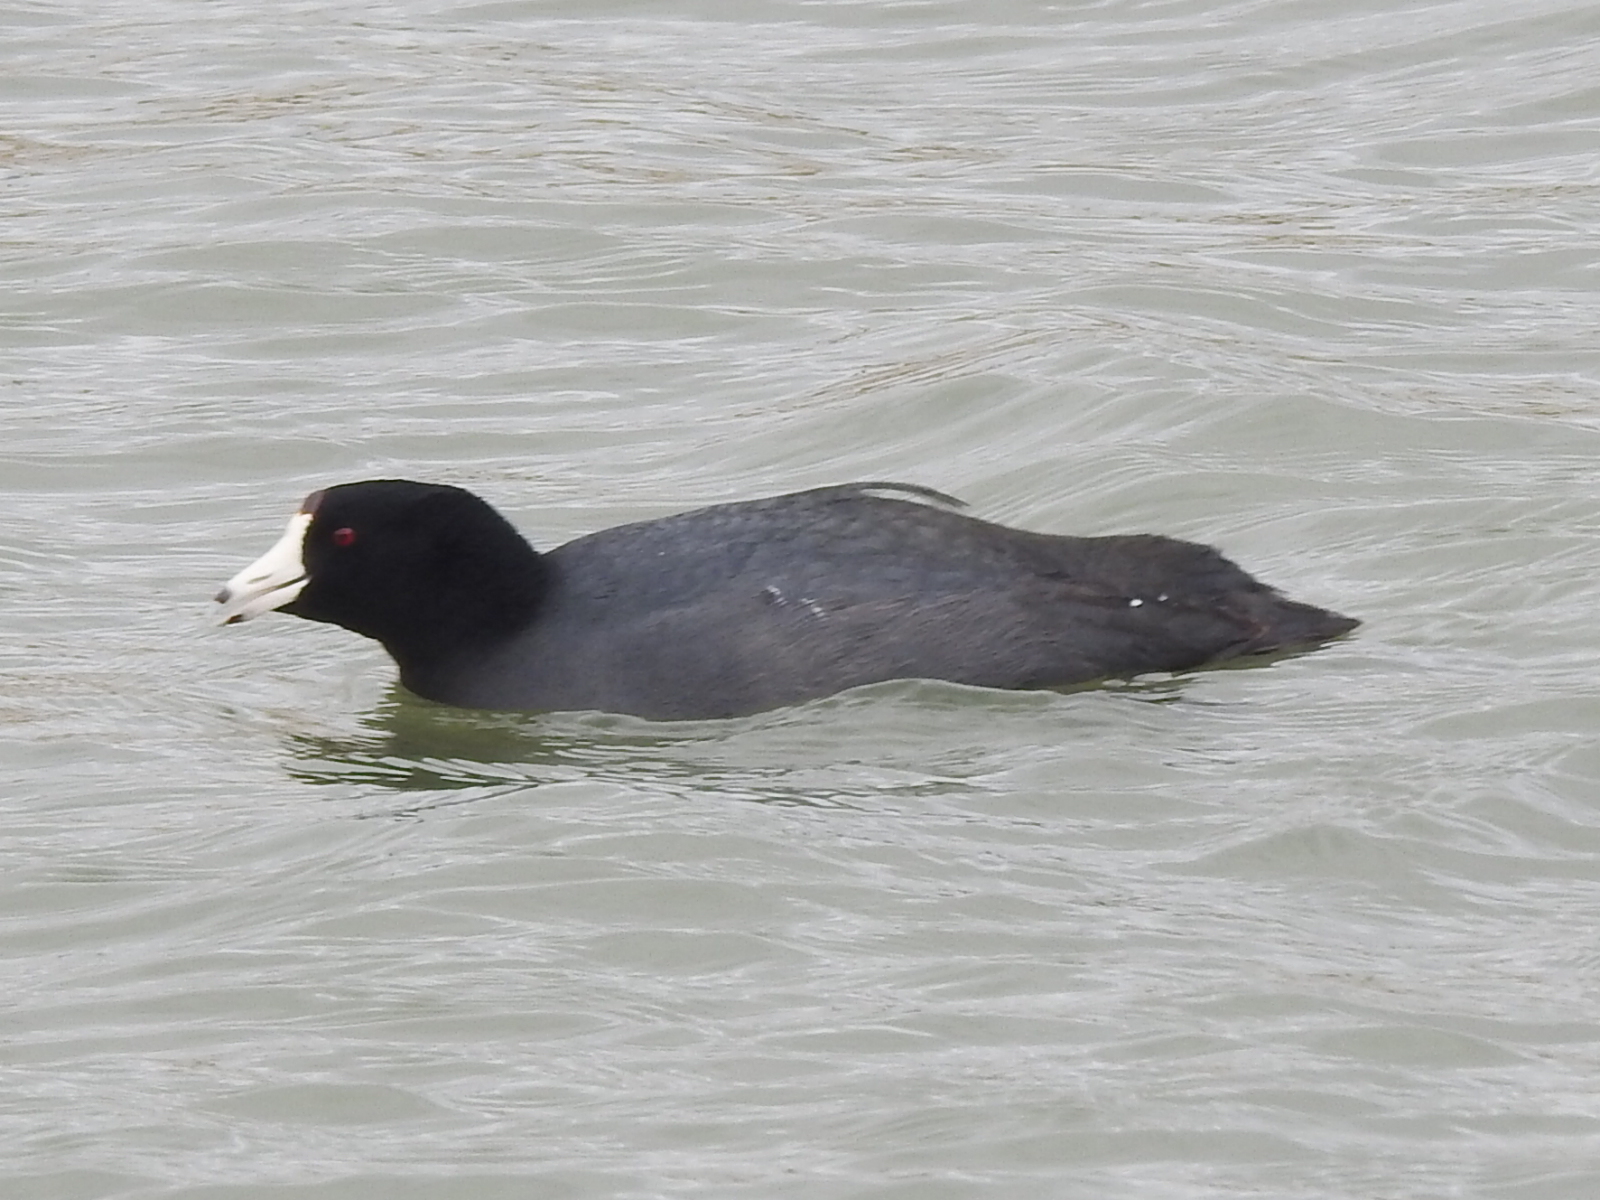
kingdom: Animalia
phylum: Chordata
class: Aves
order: Gruiformes
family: Rallidae
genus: Fulica
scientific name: Fulica americana
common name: American coot
